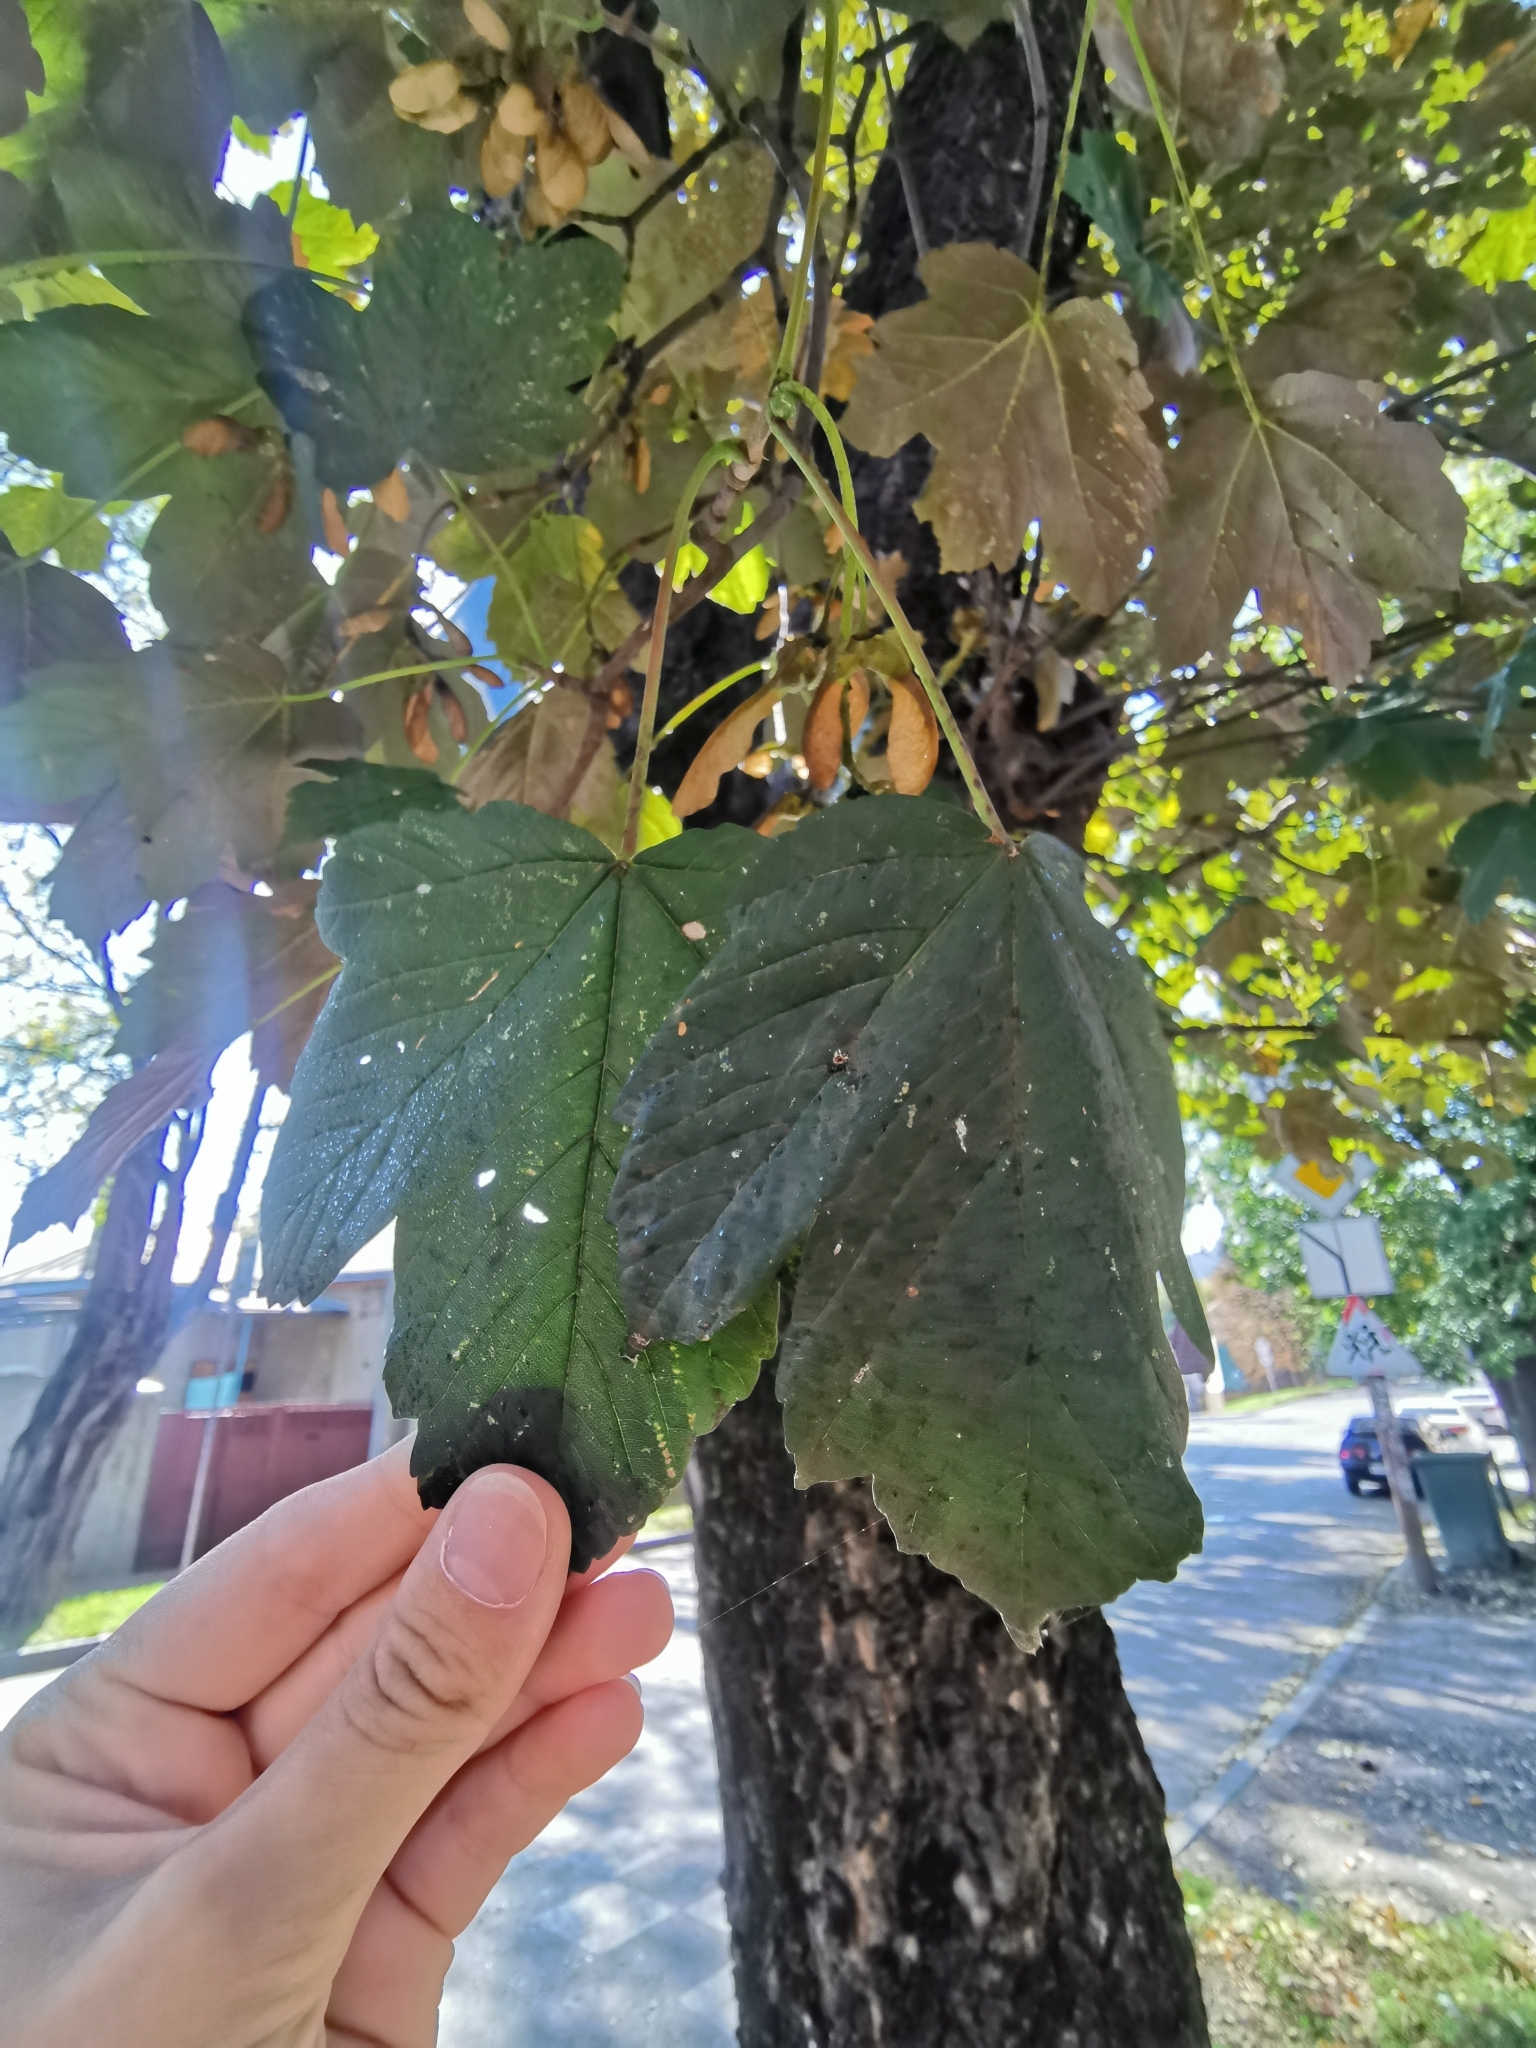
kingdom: Plantae
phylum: Tracheophyta
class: Magnoliopsida
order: Sapindales
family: Sapindaceae
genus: Acer
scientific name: Acer pseudoplatanus
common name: Sycamore
